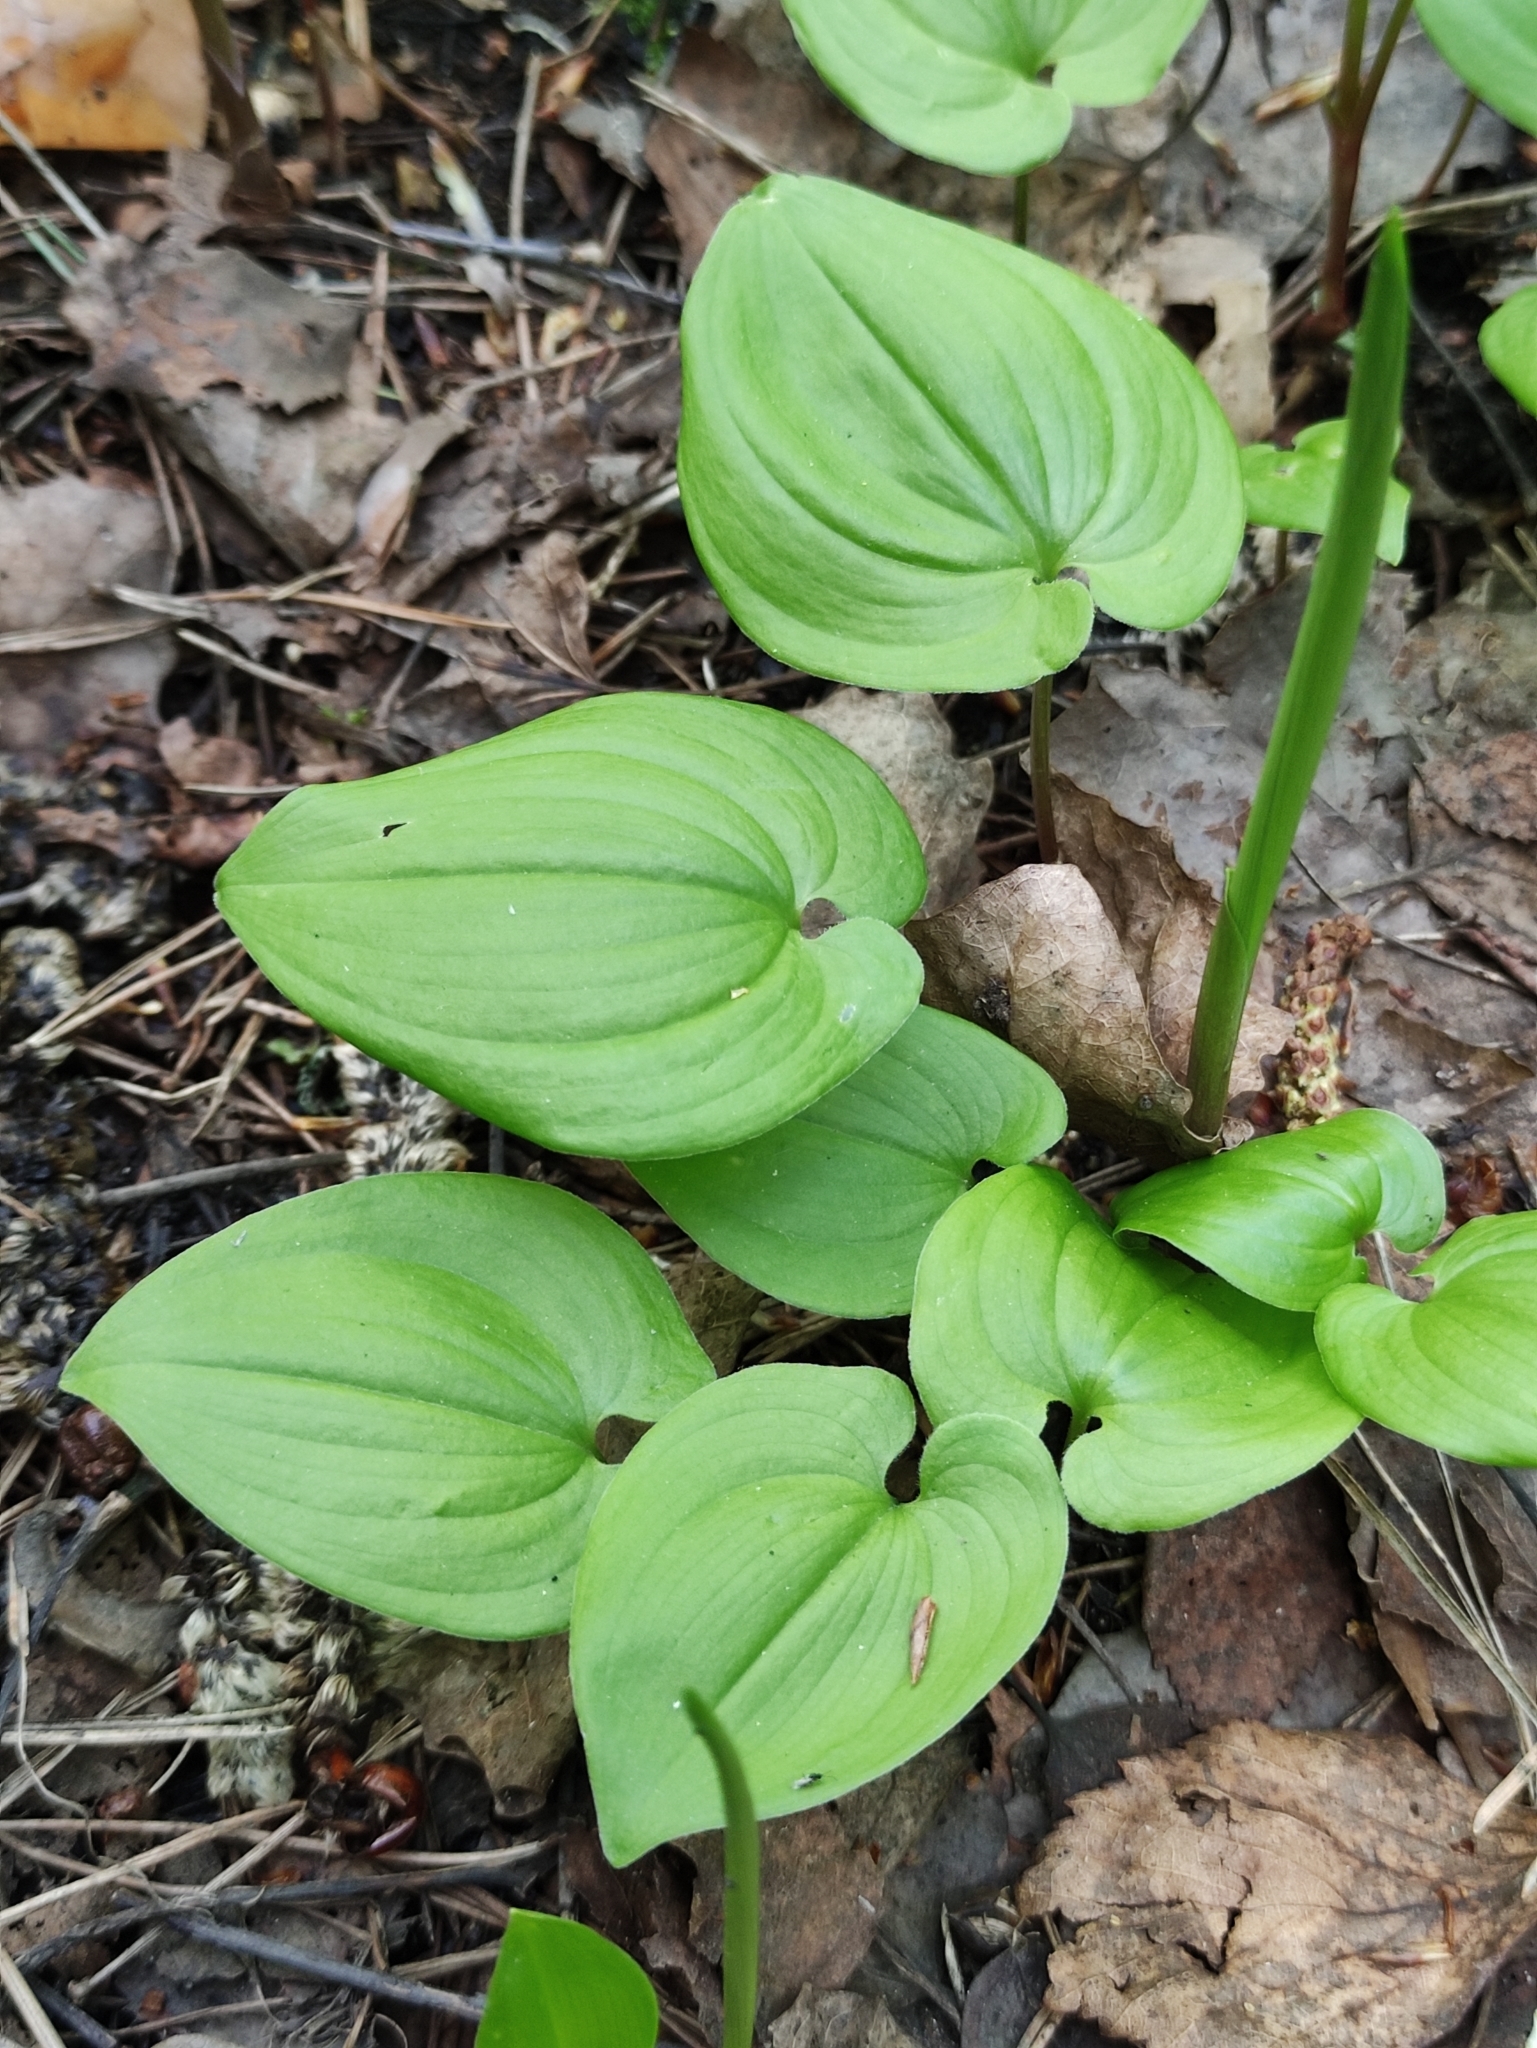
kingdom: Plantae
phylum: Tracheophyta
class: Liliopsida
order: Asparagales
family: Asparagaceae
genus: Maianthemum
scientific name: Maianthemum bifolium
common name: May lily
